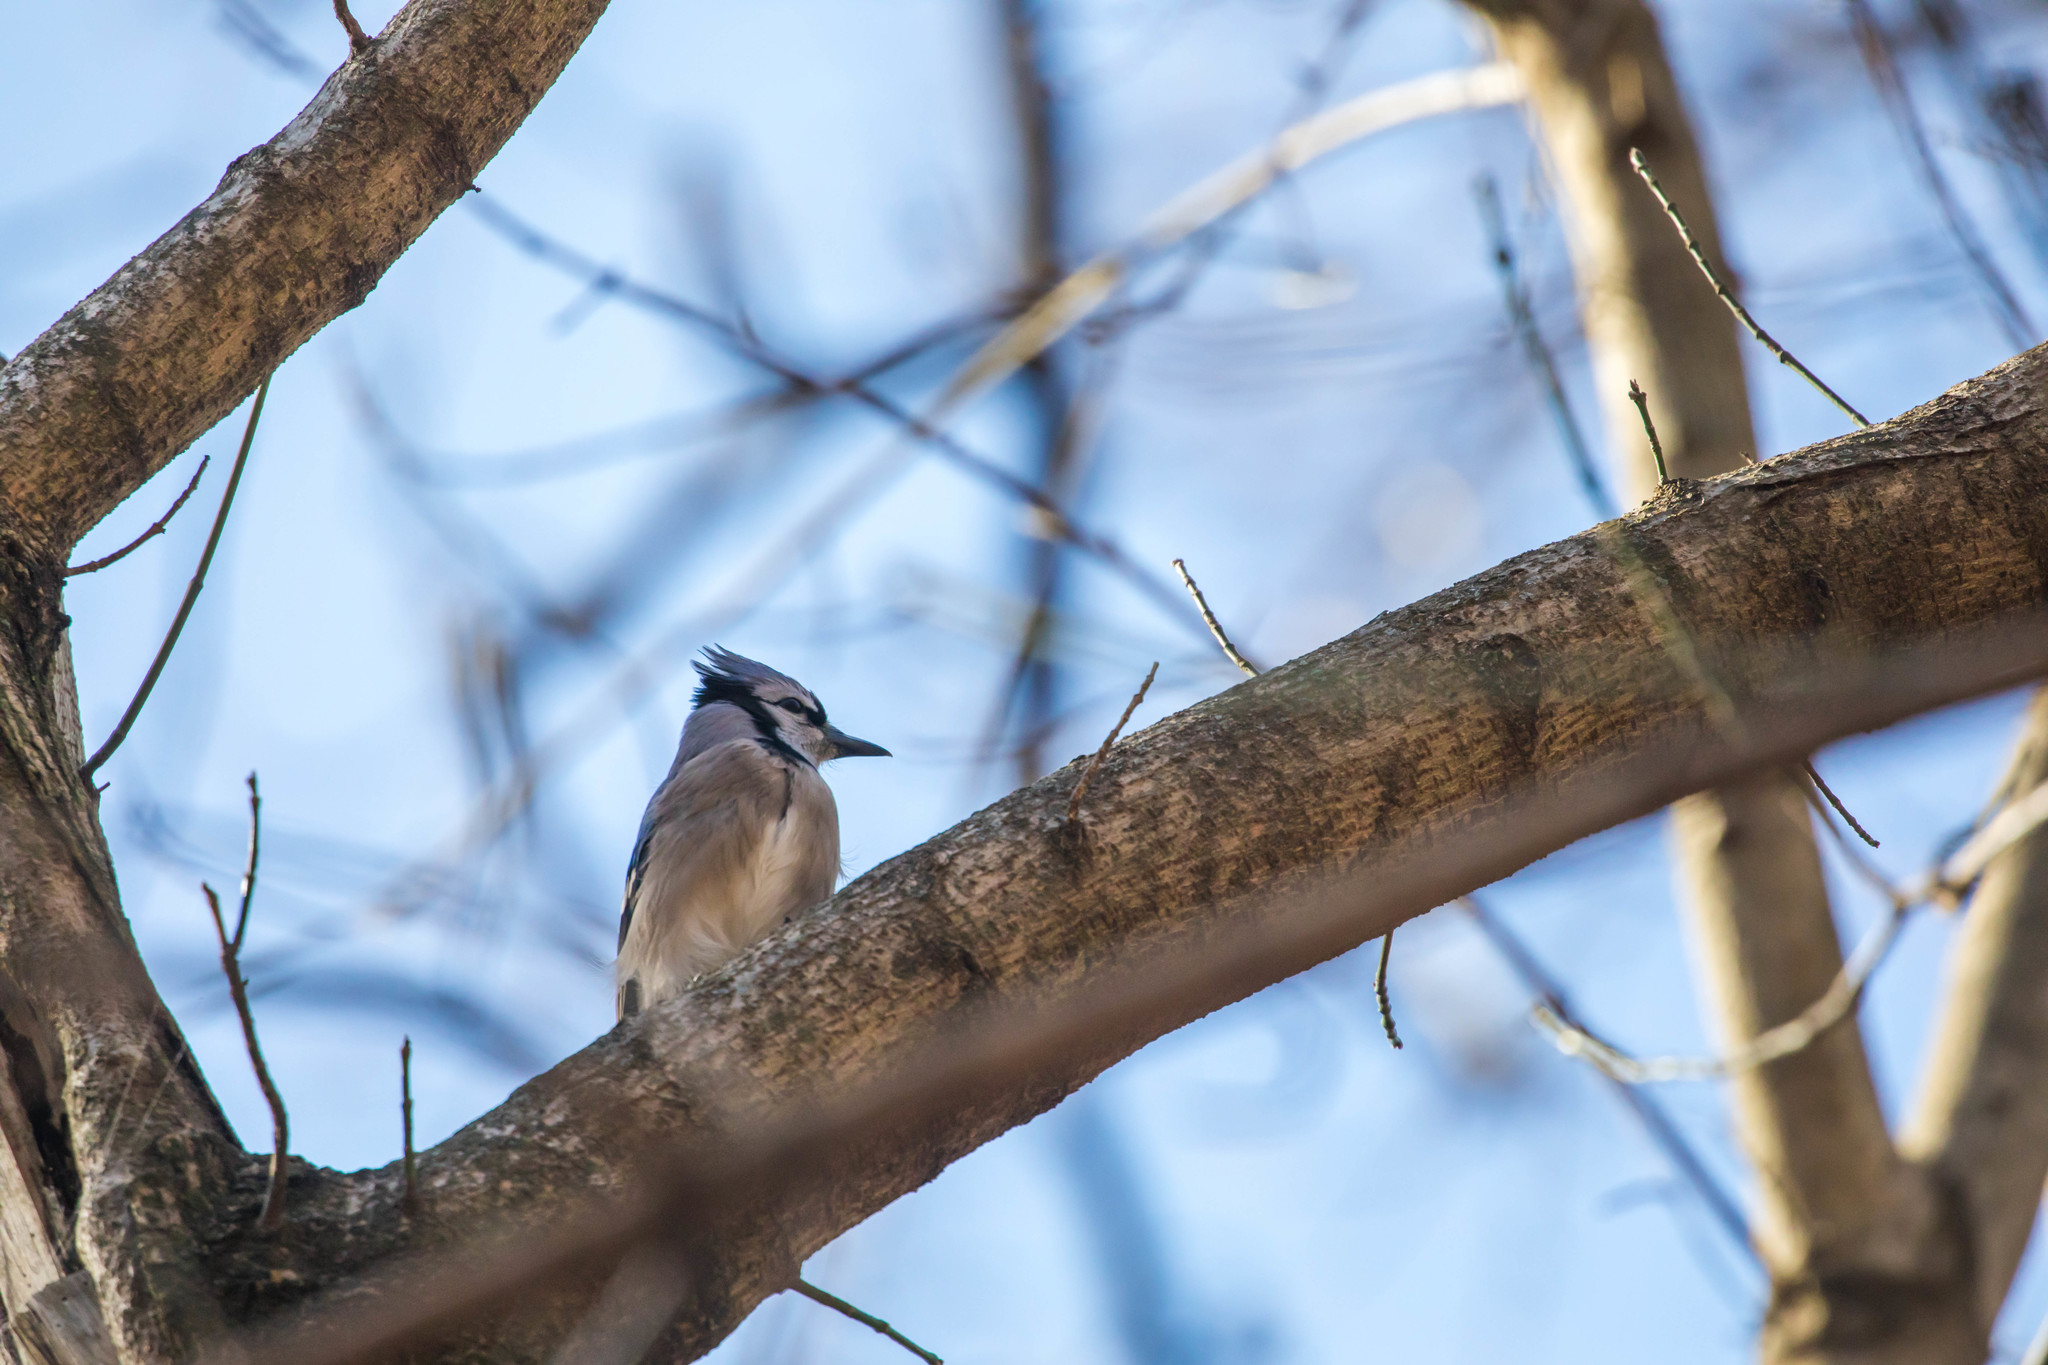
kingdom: Animalia
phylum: Chordata
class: Aves
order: Passeriformes
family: Corvidae
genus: Cyanocitta
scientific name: Cyanocitta cristata
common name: Blue jay
